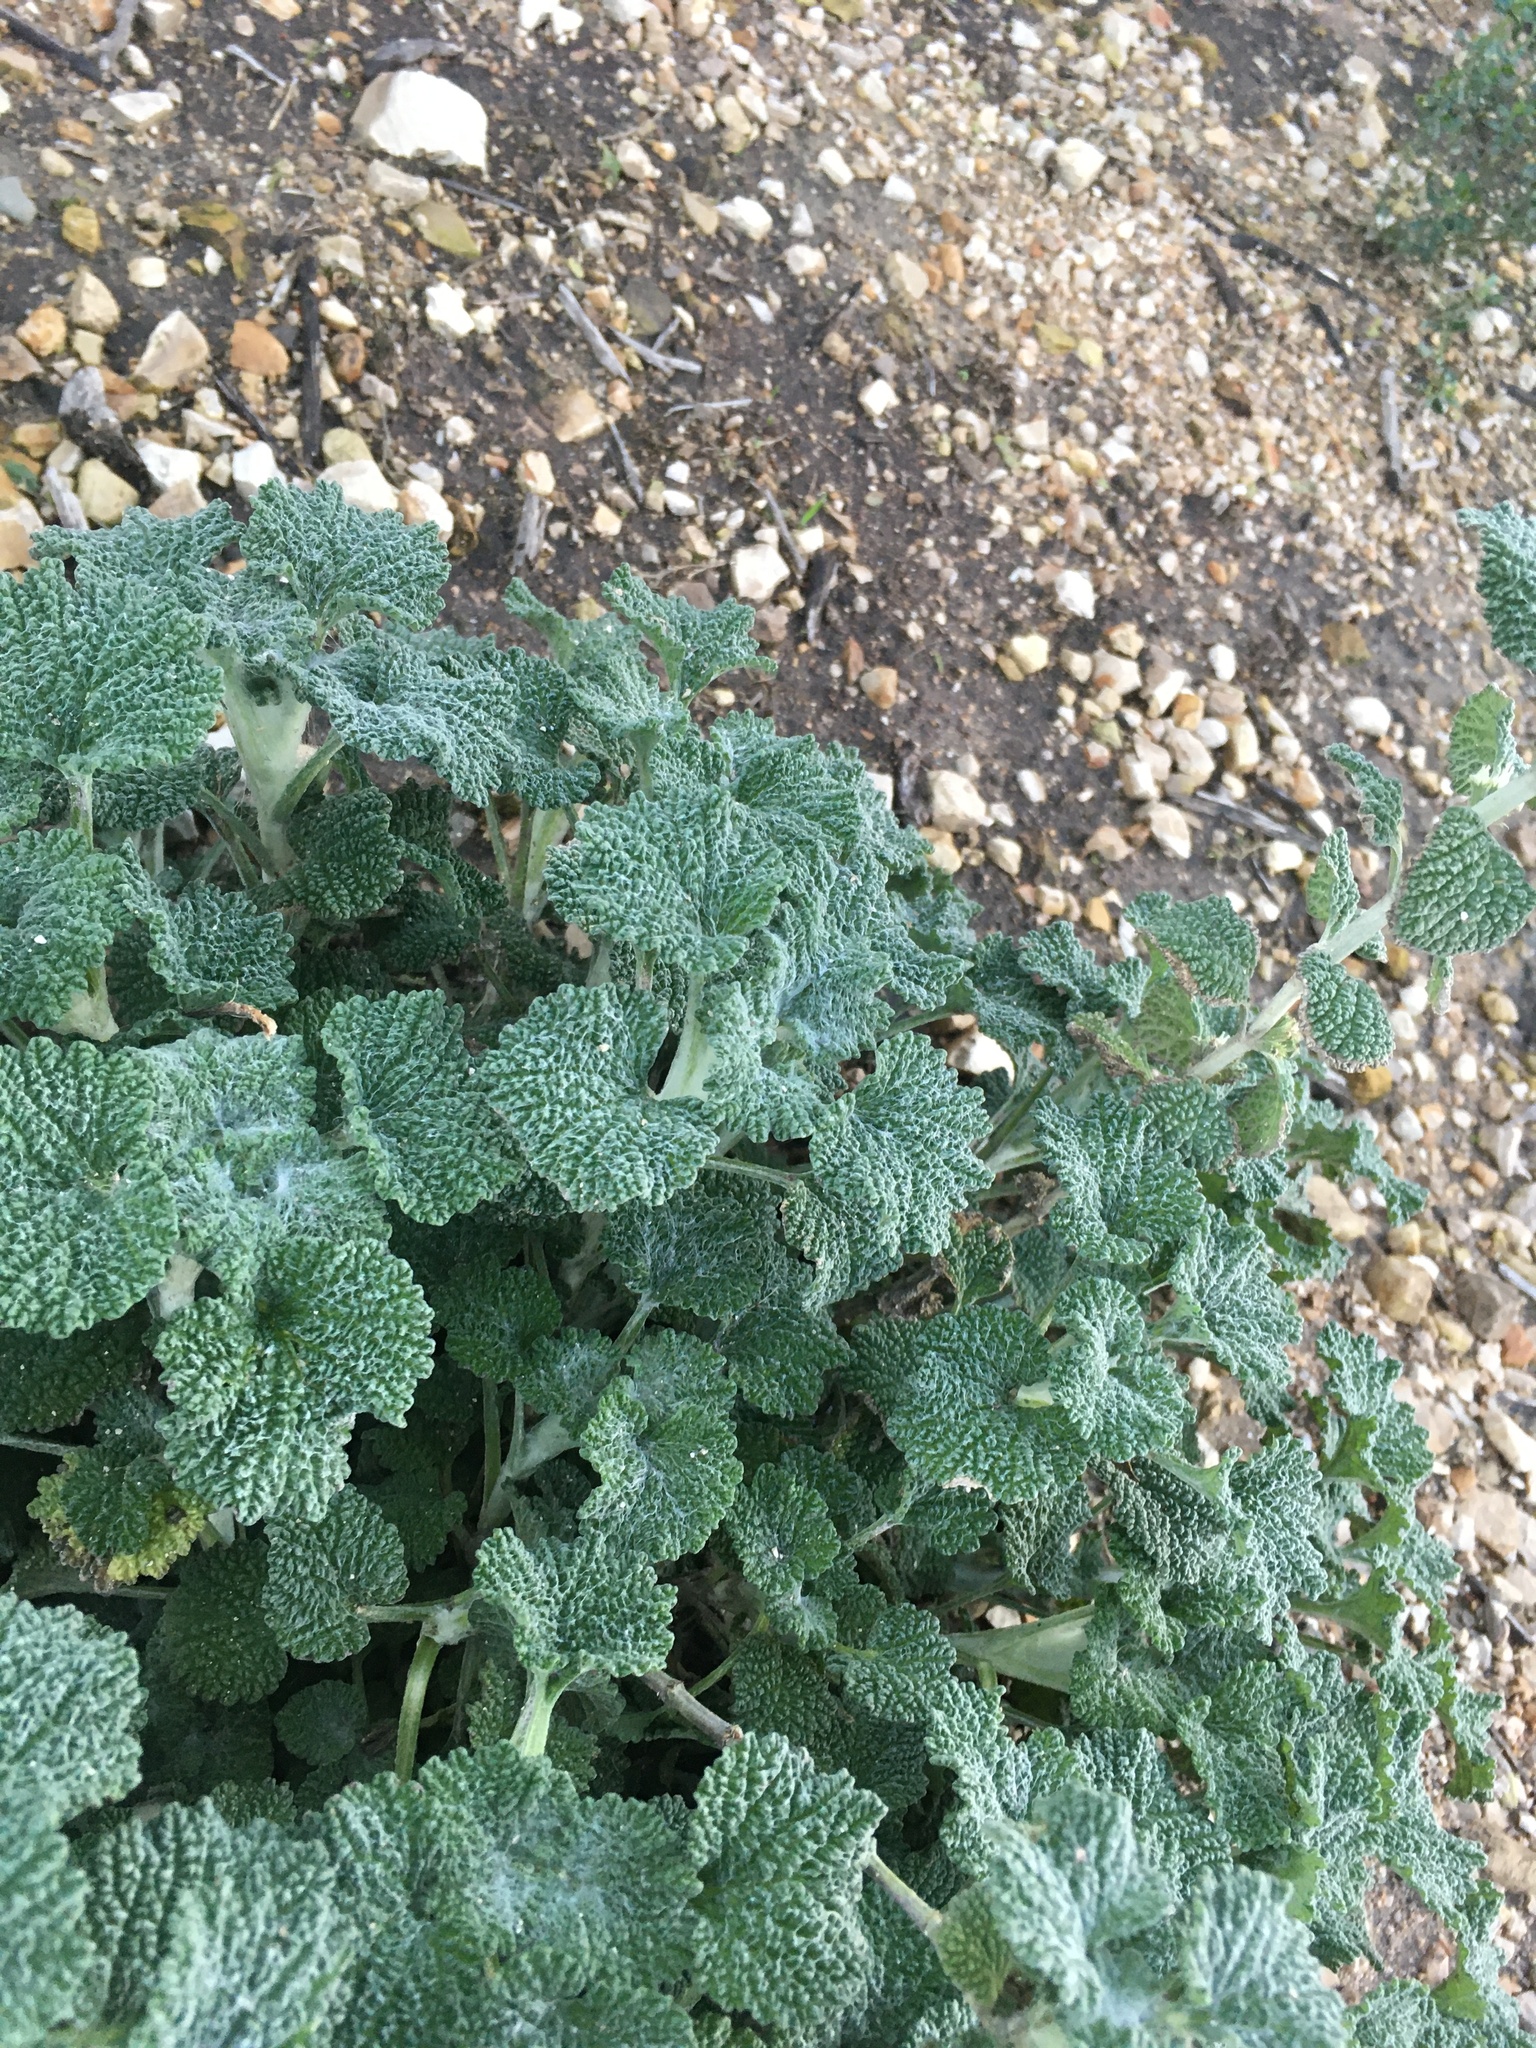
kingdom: Plantae
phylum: Tracheophyta
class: Magnoliopsida
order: Lamiales
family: Lamiaceae
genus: Marrubium
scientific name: Marrubium vulgare
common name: Horehound
